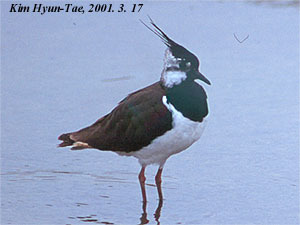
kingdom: Animalia
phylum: Chordata
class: Aves
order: Charadriiformes
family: Charadriidae
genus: Vanellus
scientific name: Vanellus vanellus
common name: Northern lapwing
